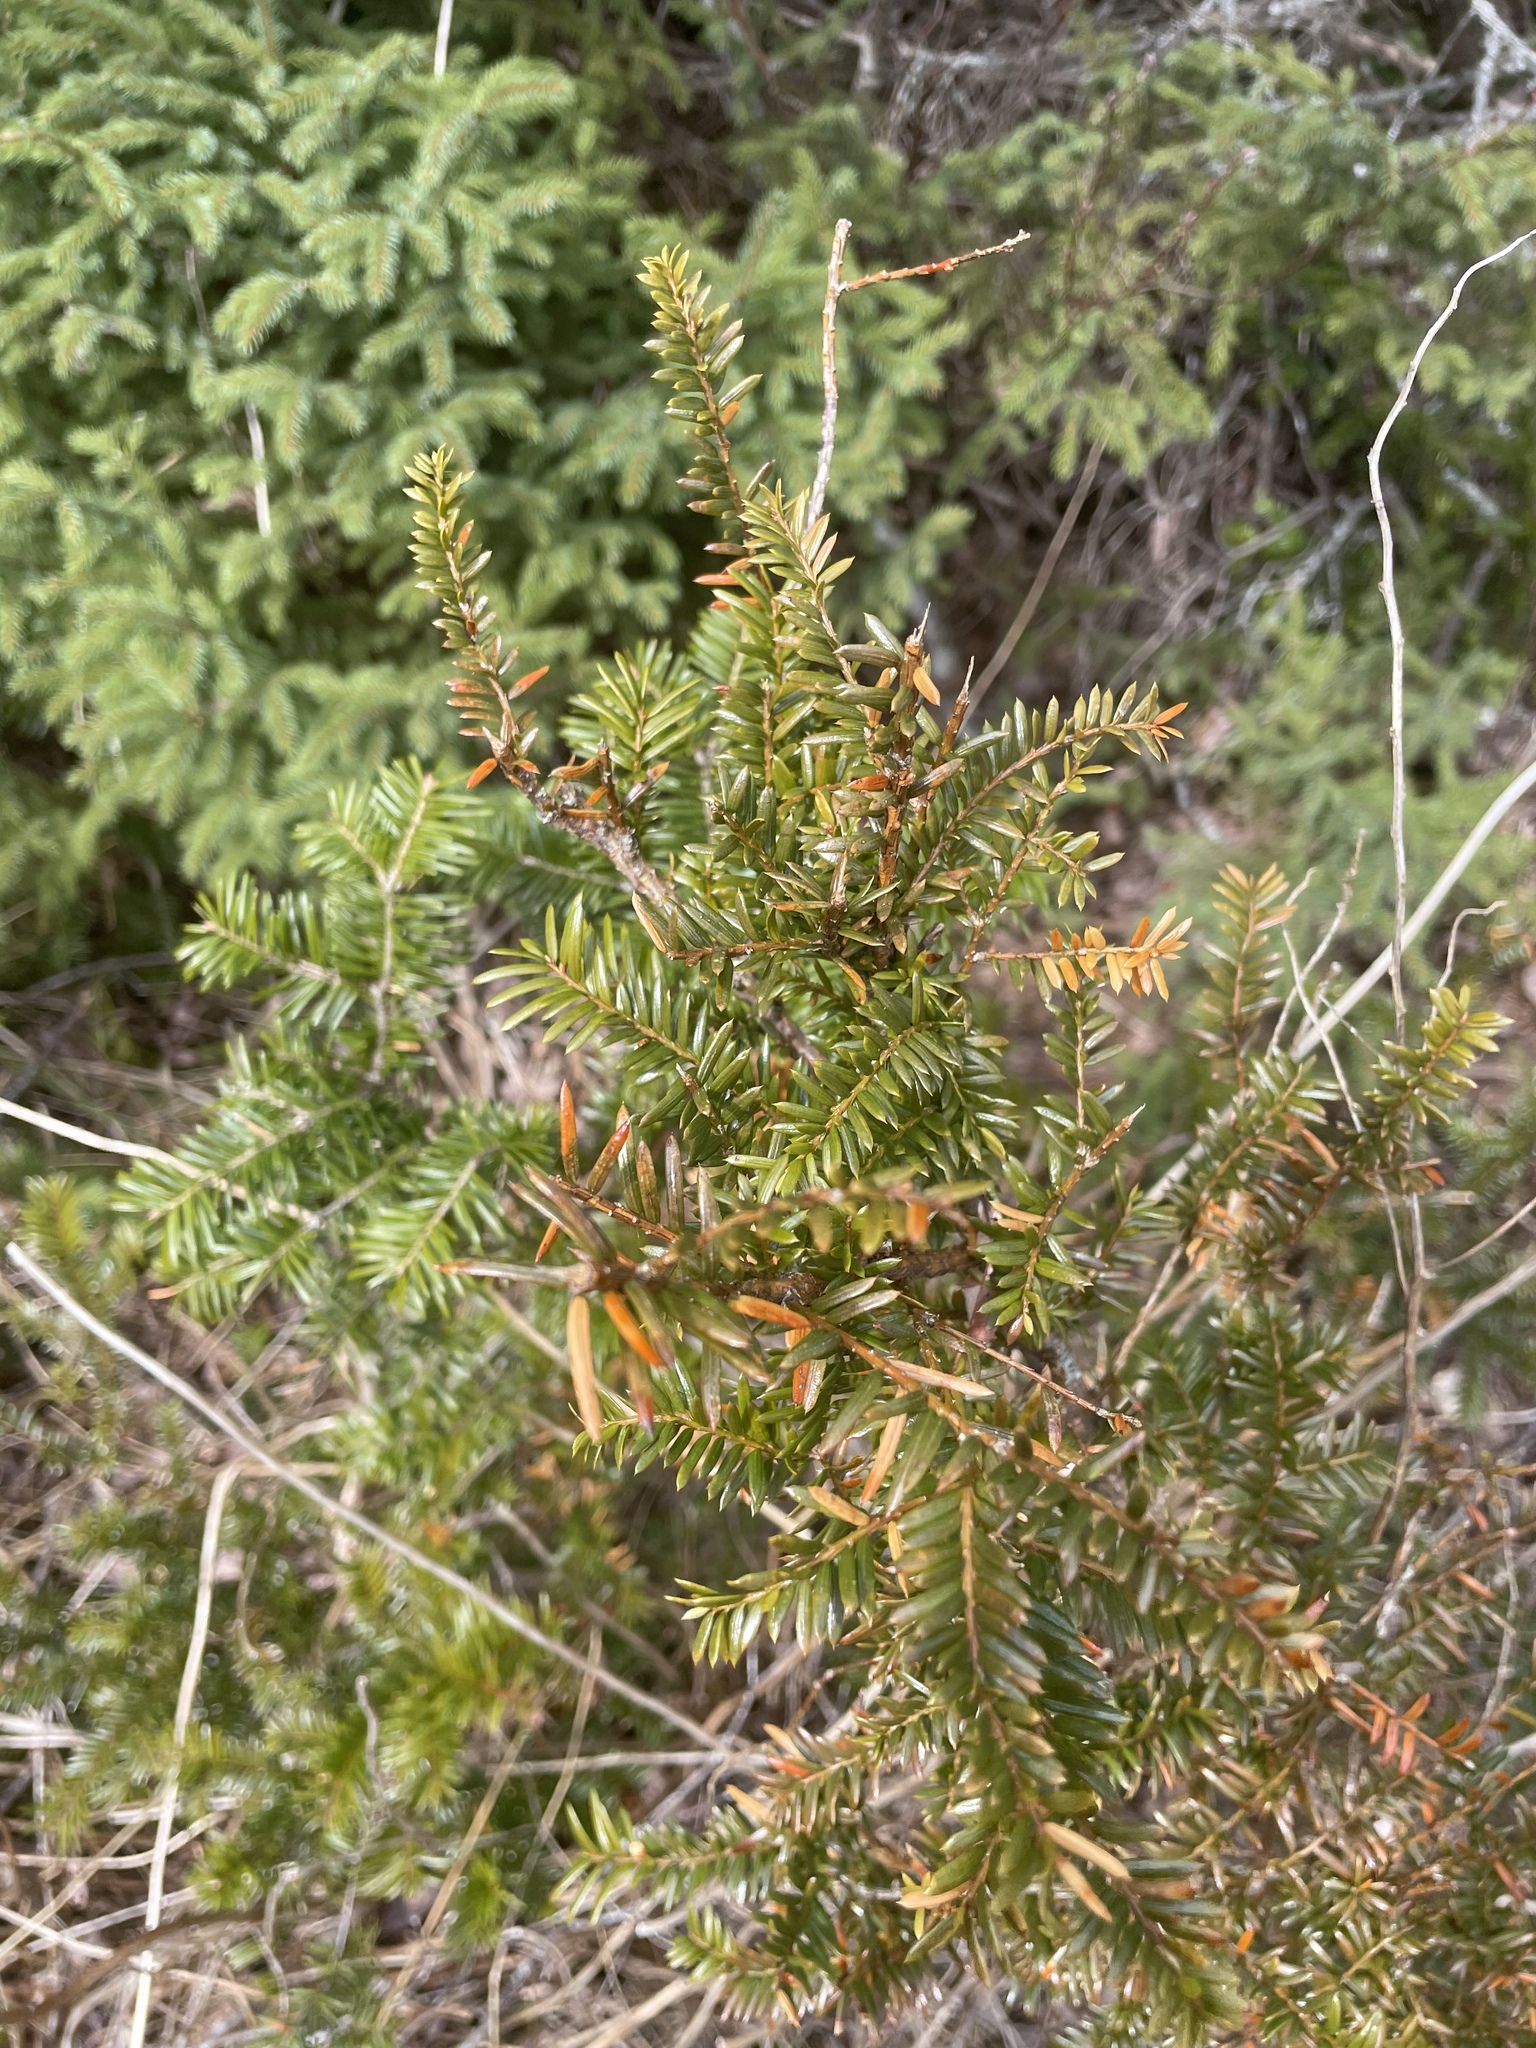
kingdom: Plantae
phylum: Tracheophyta
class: Pinopsida
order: Pinales
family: Taxaceae
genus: Taxus
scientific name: Taxus canadensis
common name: American yew
